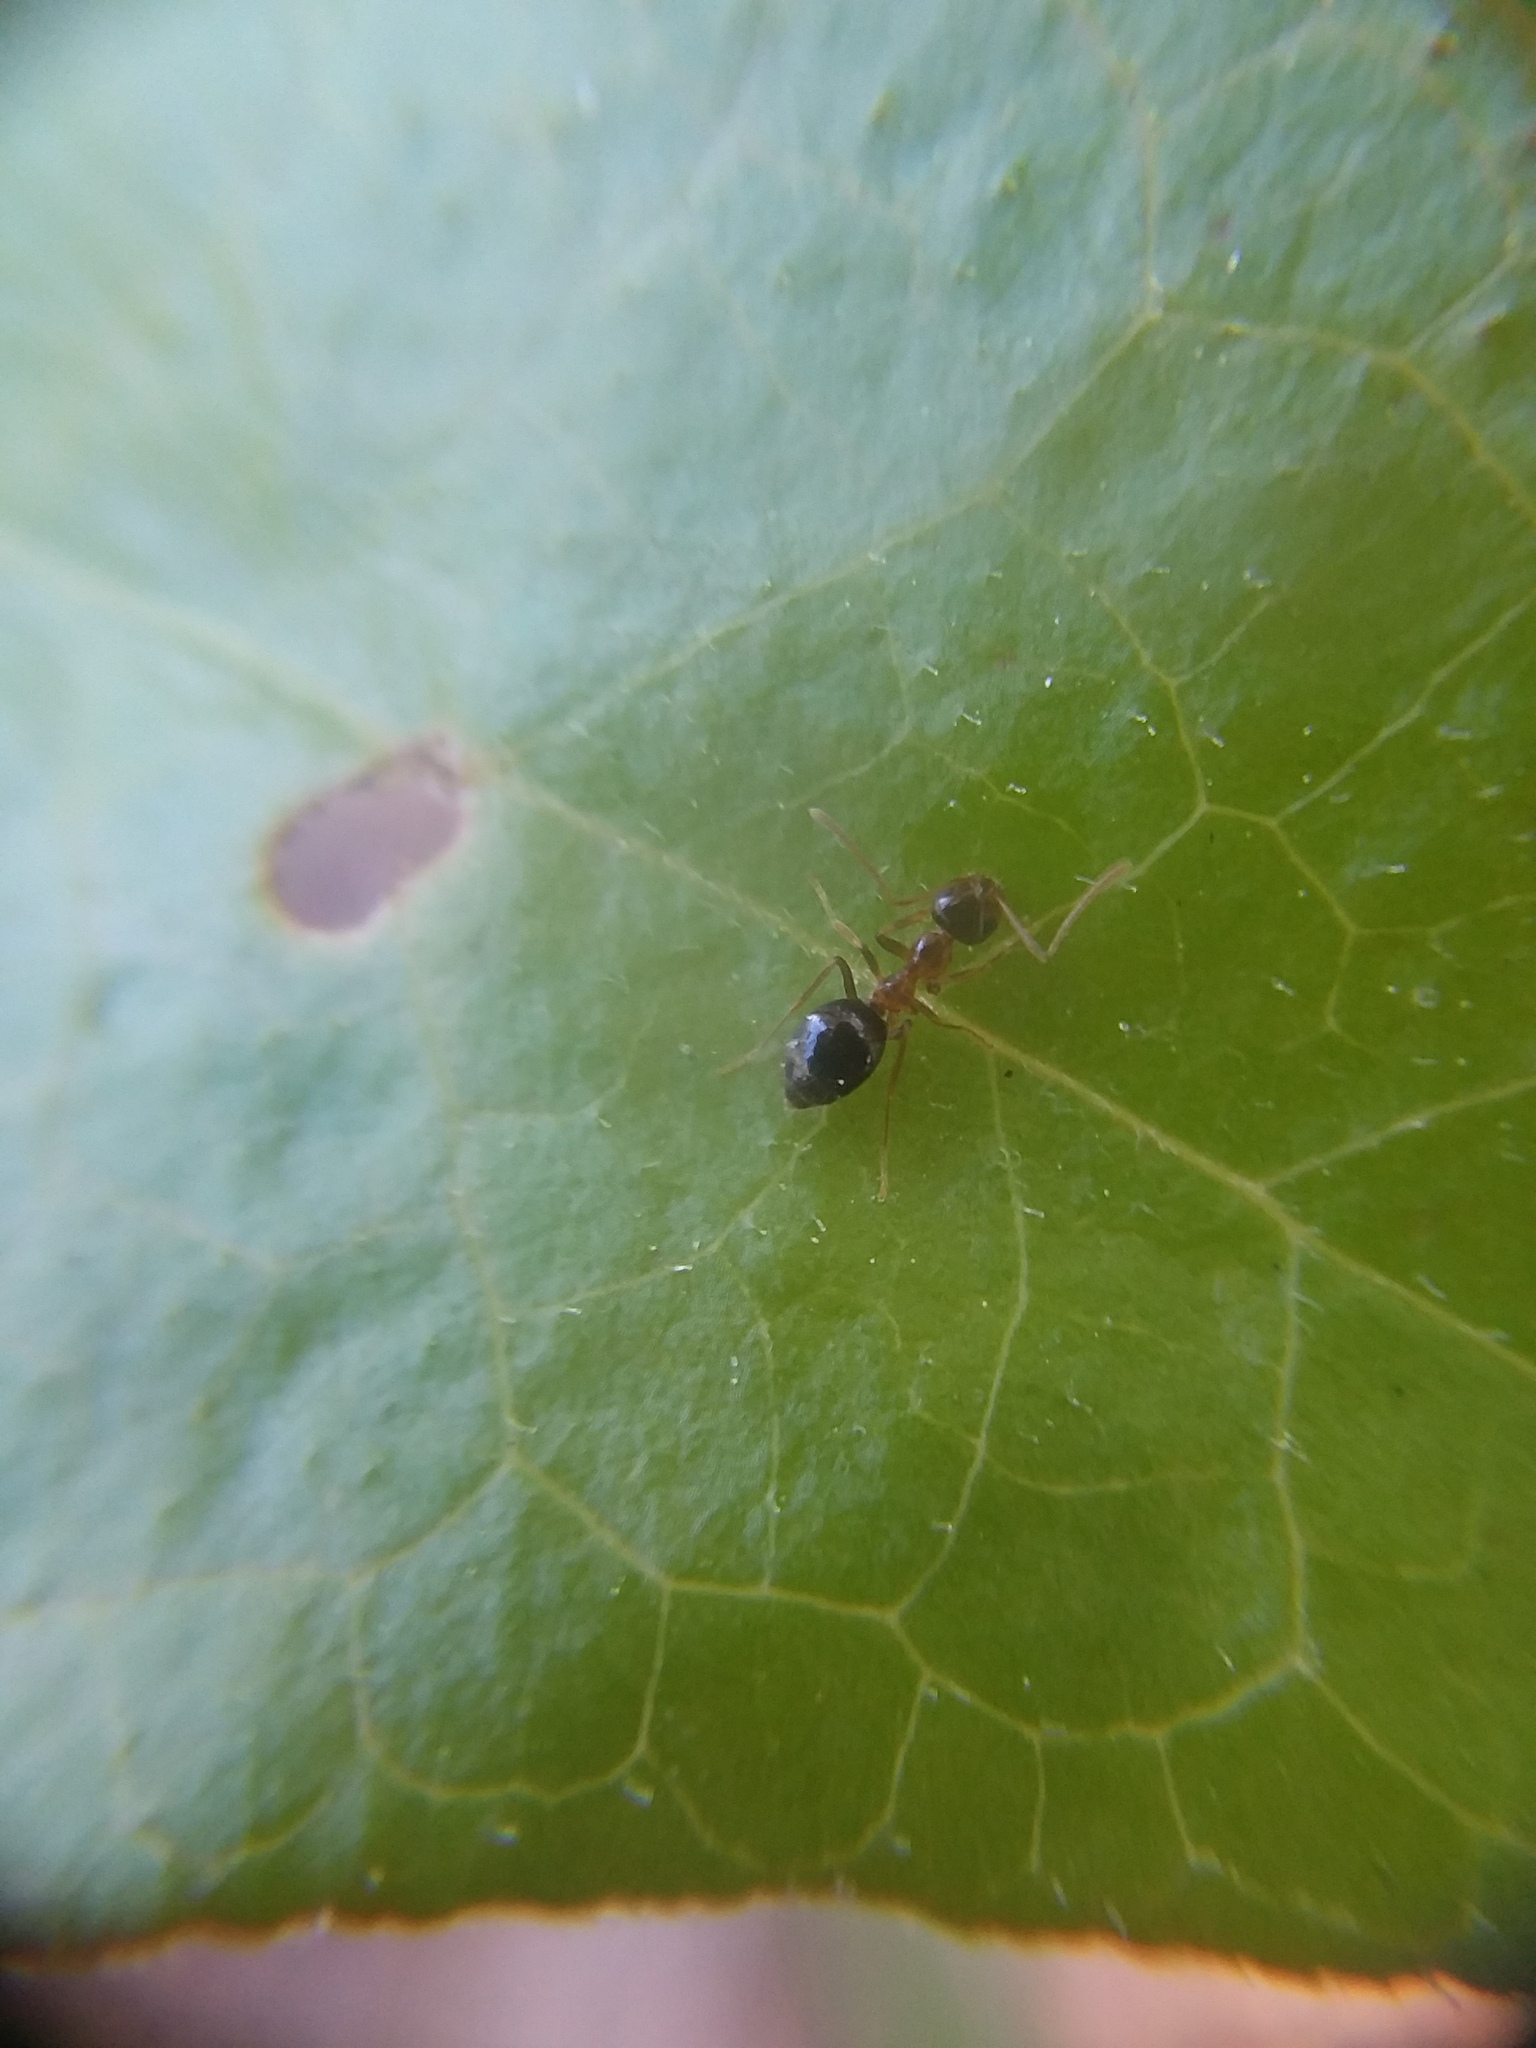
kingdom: Animalia
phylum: Arthropoda
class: Insecta
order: Hymenoptera
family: Formicidae
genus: Prenolepis
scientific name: Prenolepis imparis
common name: Small honey ant
